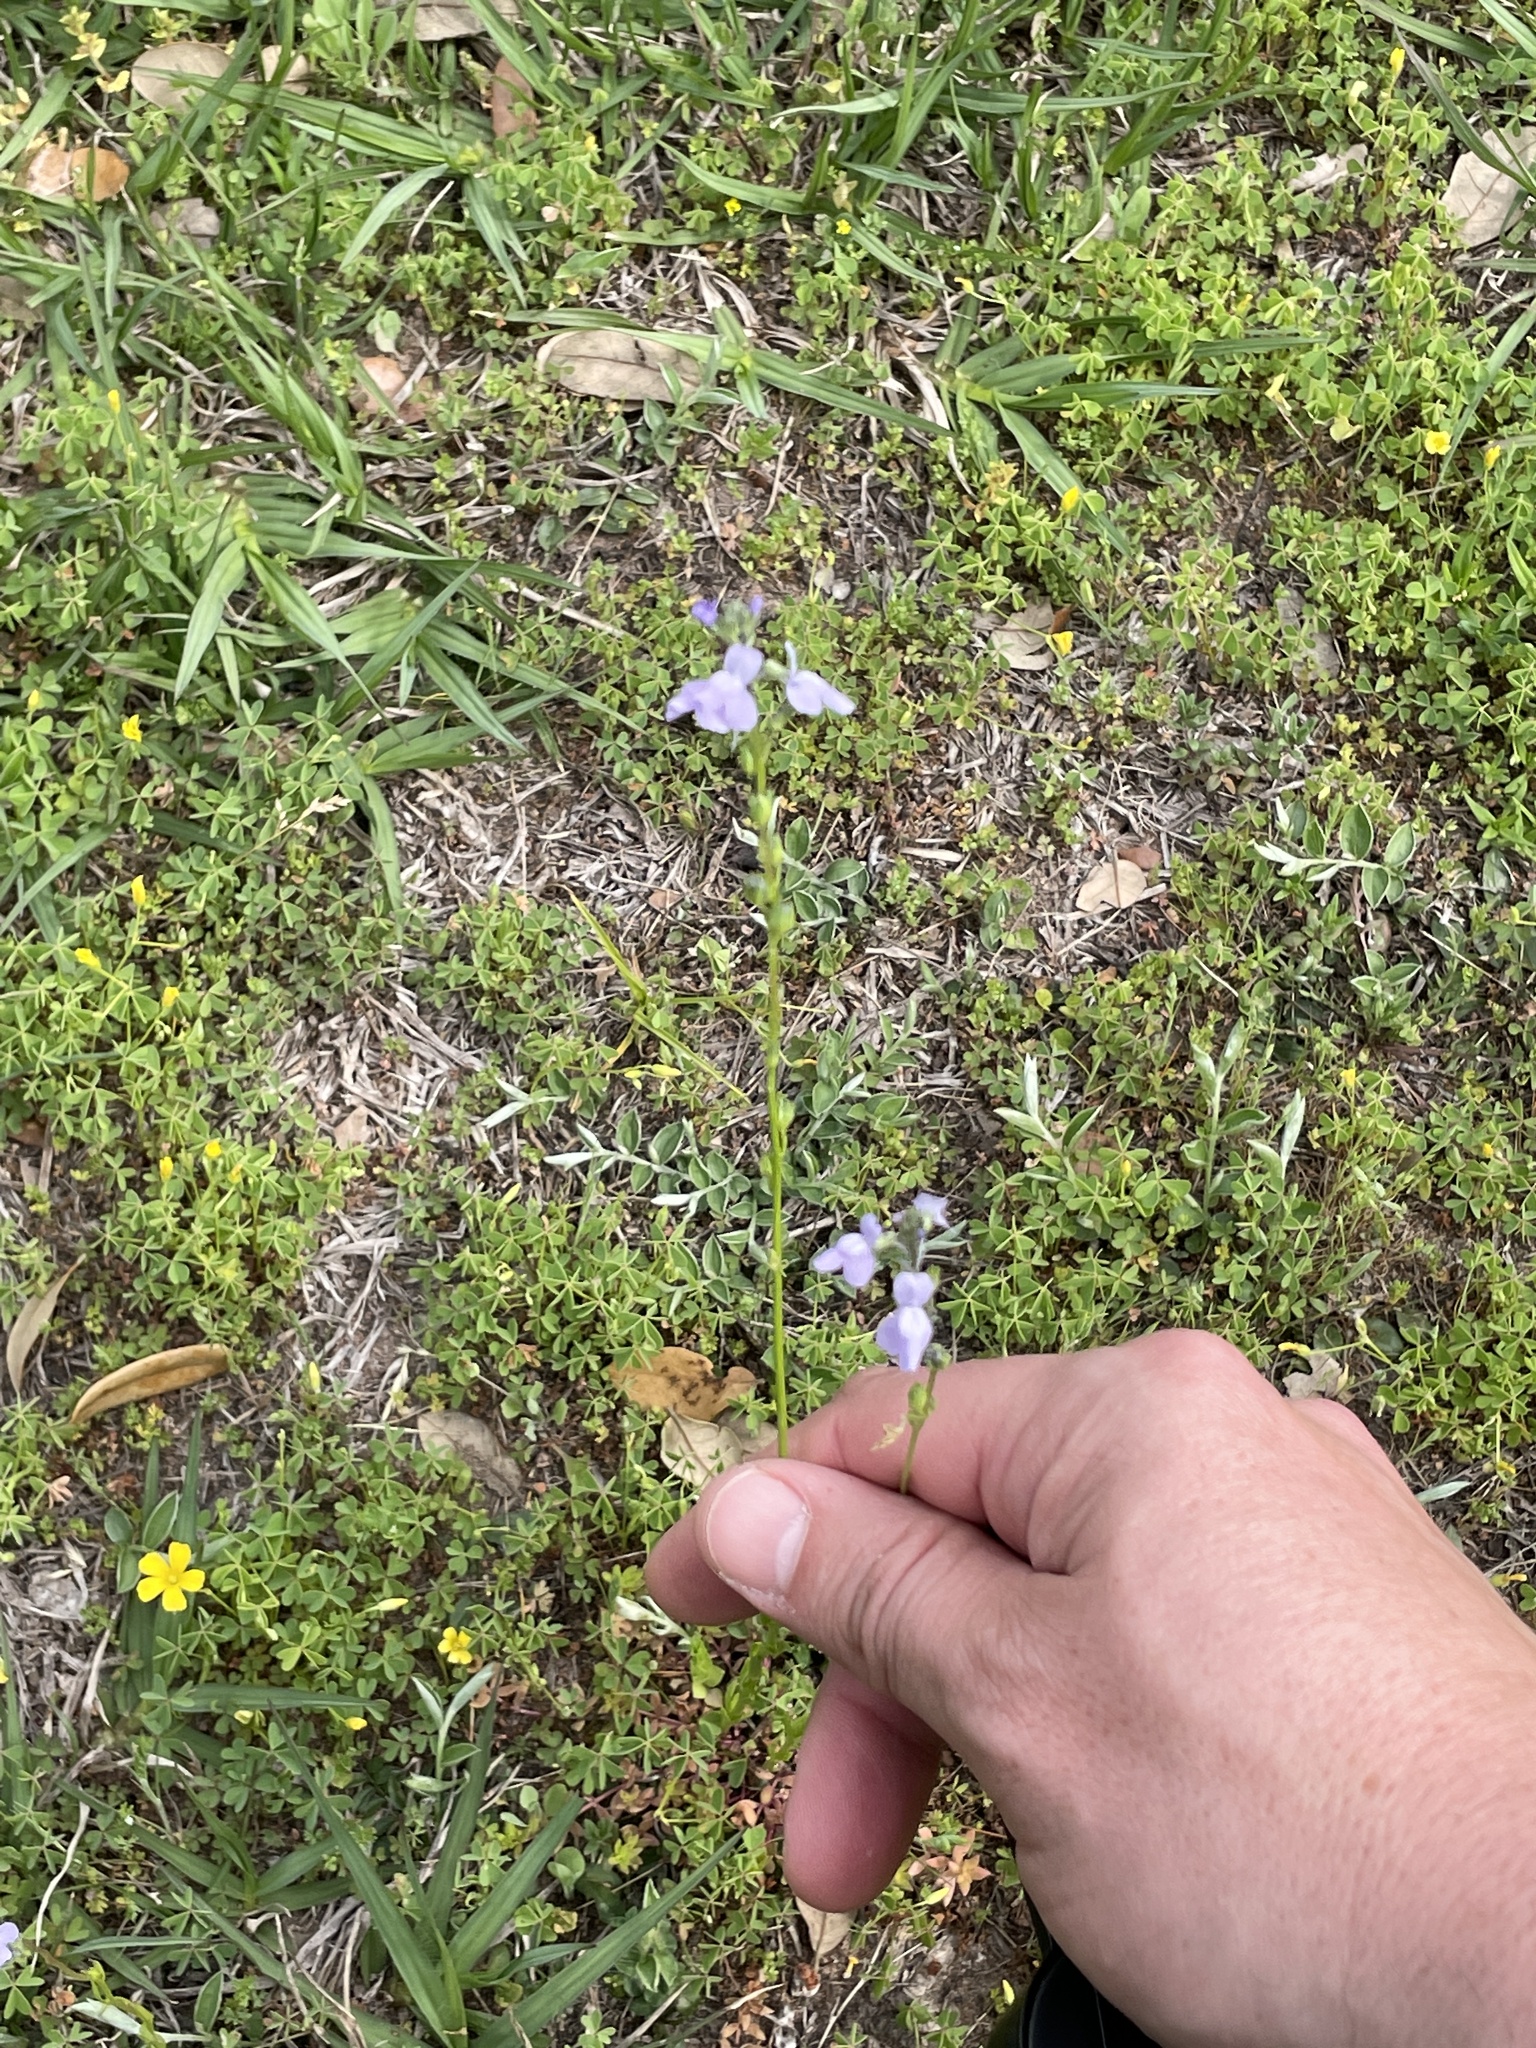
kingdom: Plantae
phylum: Tracheophyta
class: Magnoliopsida
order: Lamiales
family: Plantaginaceae
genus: Nuttallanthus
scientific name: Nuttallanthus texanus
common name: Texas toadflax
